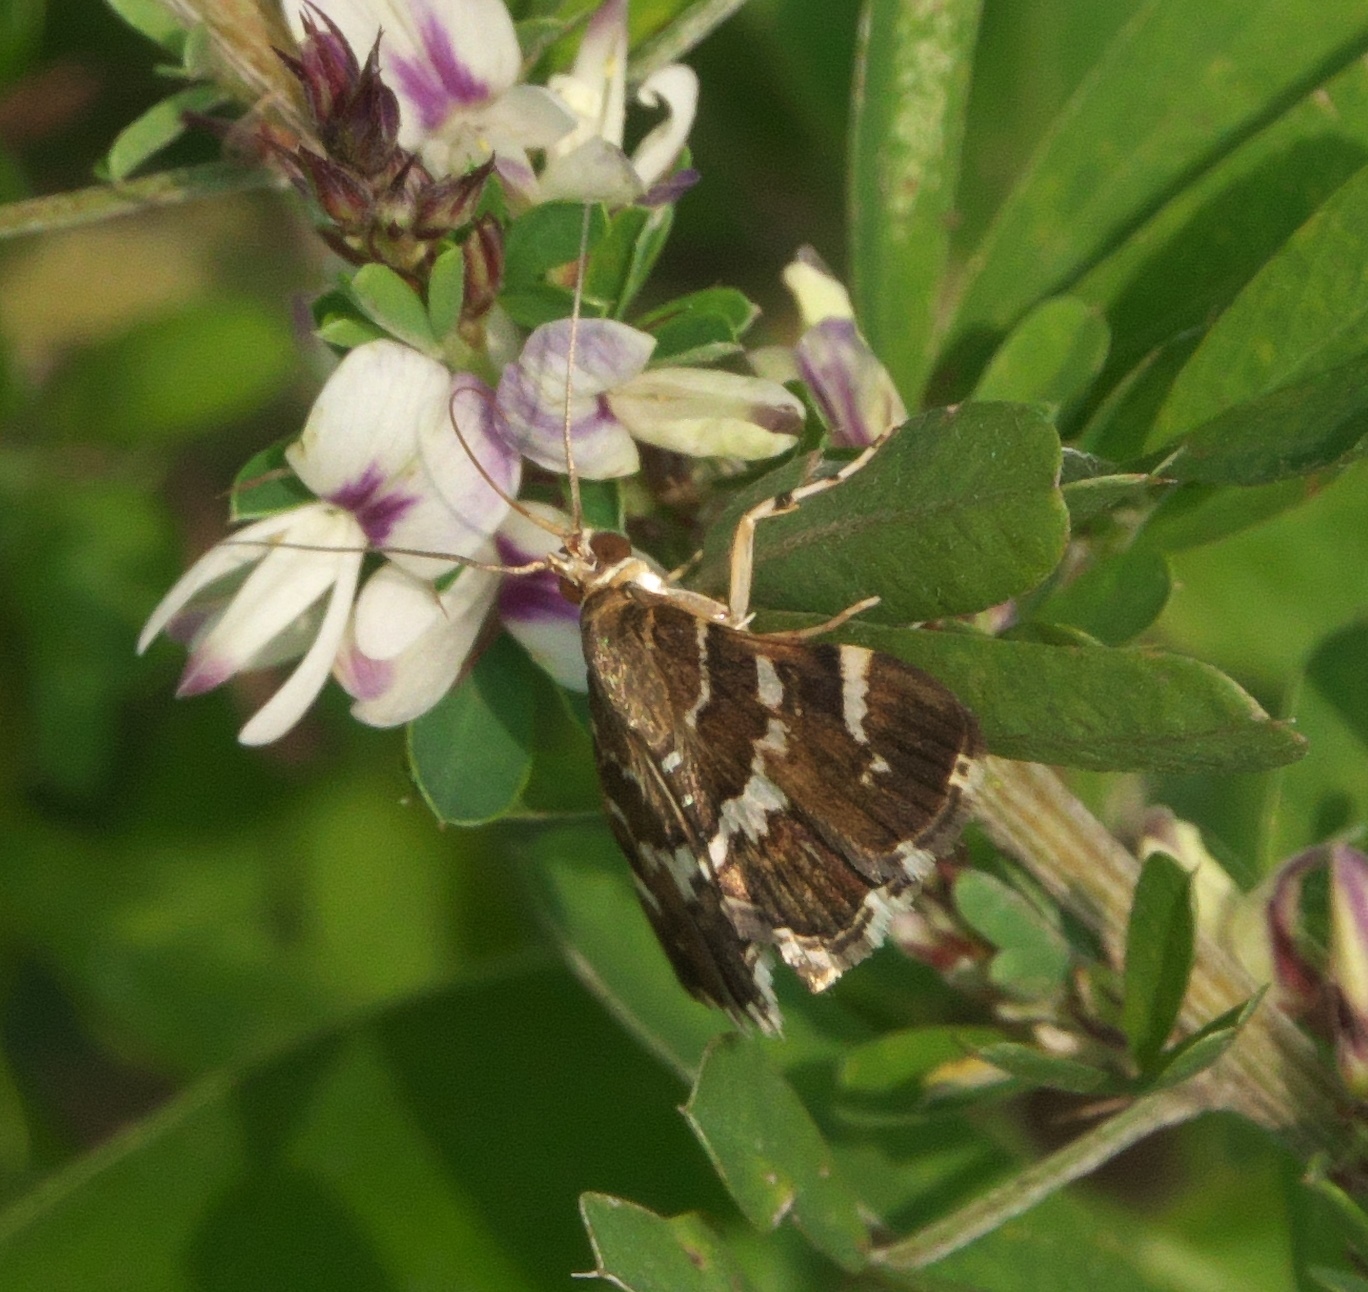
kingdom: Animalia
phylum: Arthropoda
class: Insecta
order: Lepidoptera
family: Crambidae
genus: Hymenia
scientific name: Hymenia perspectalis
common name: Spotted beet webworm
